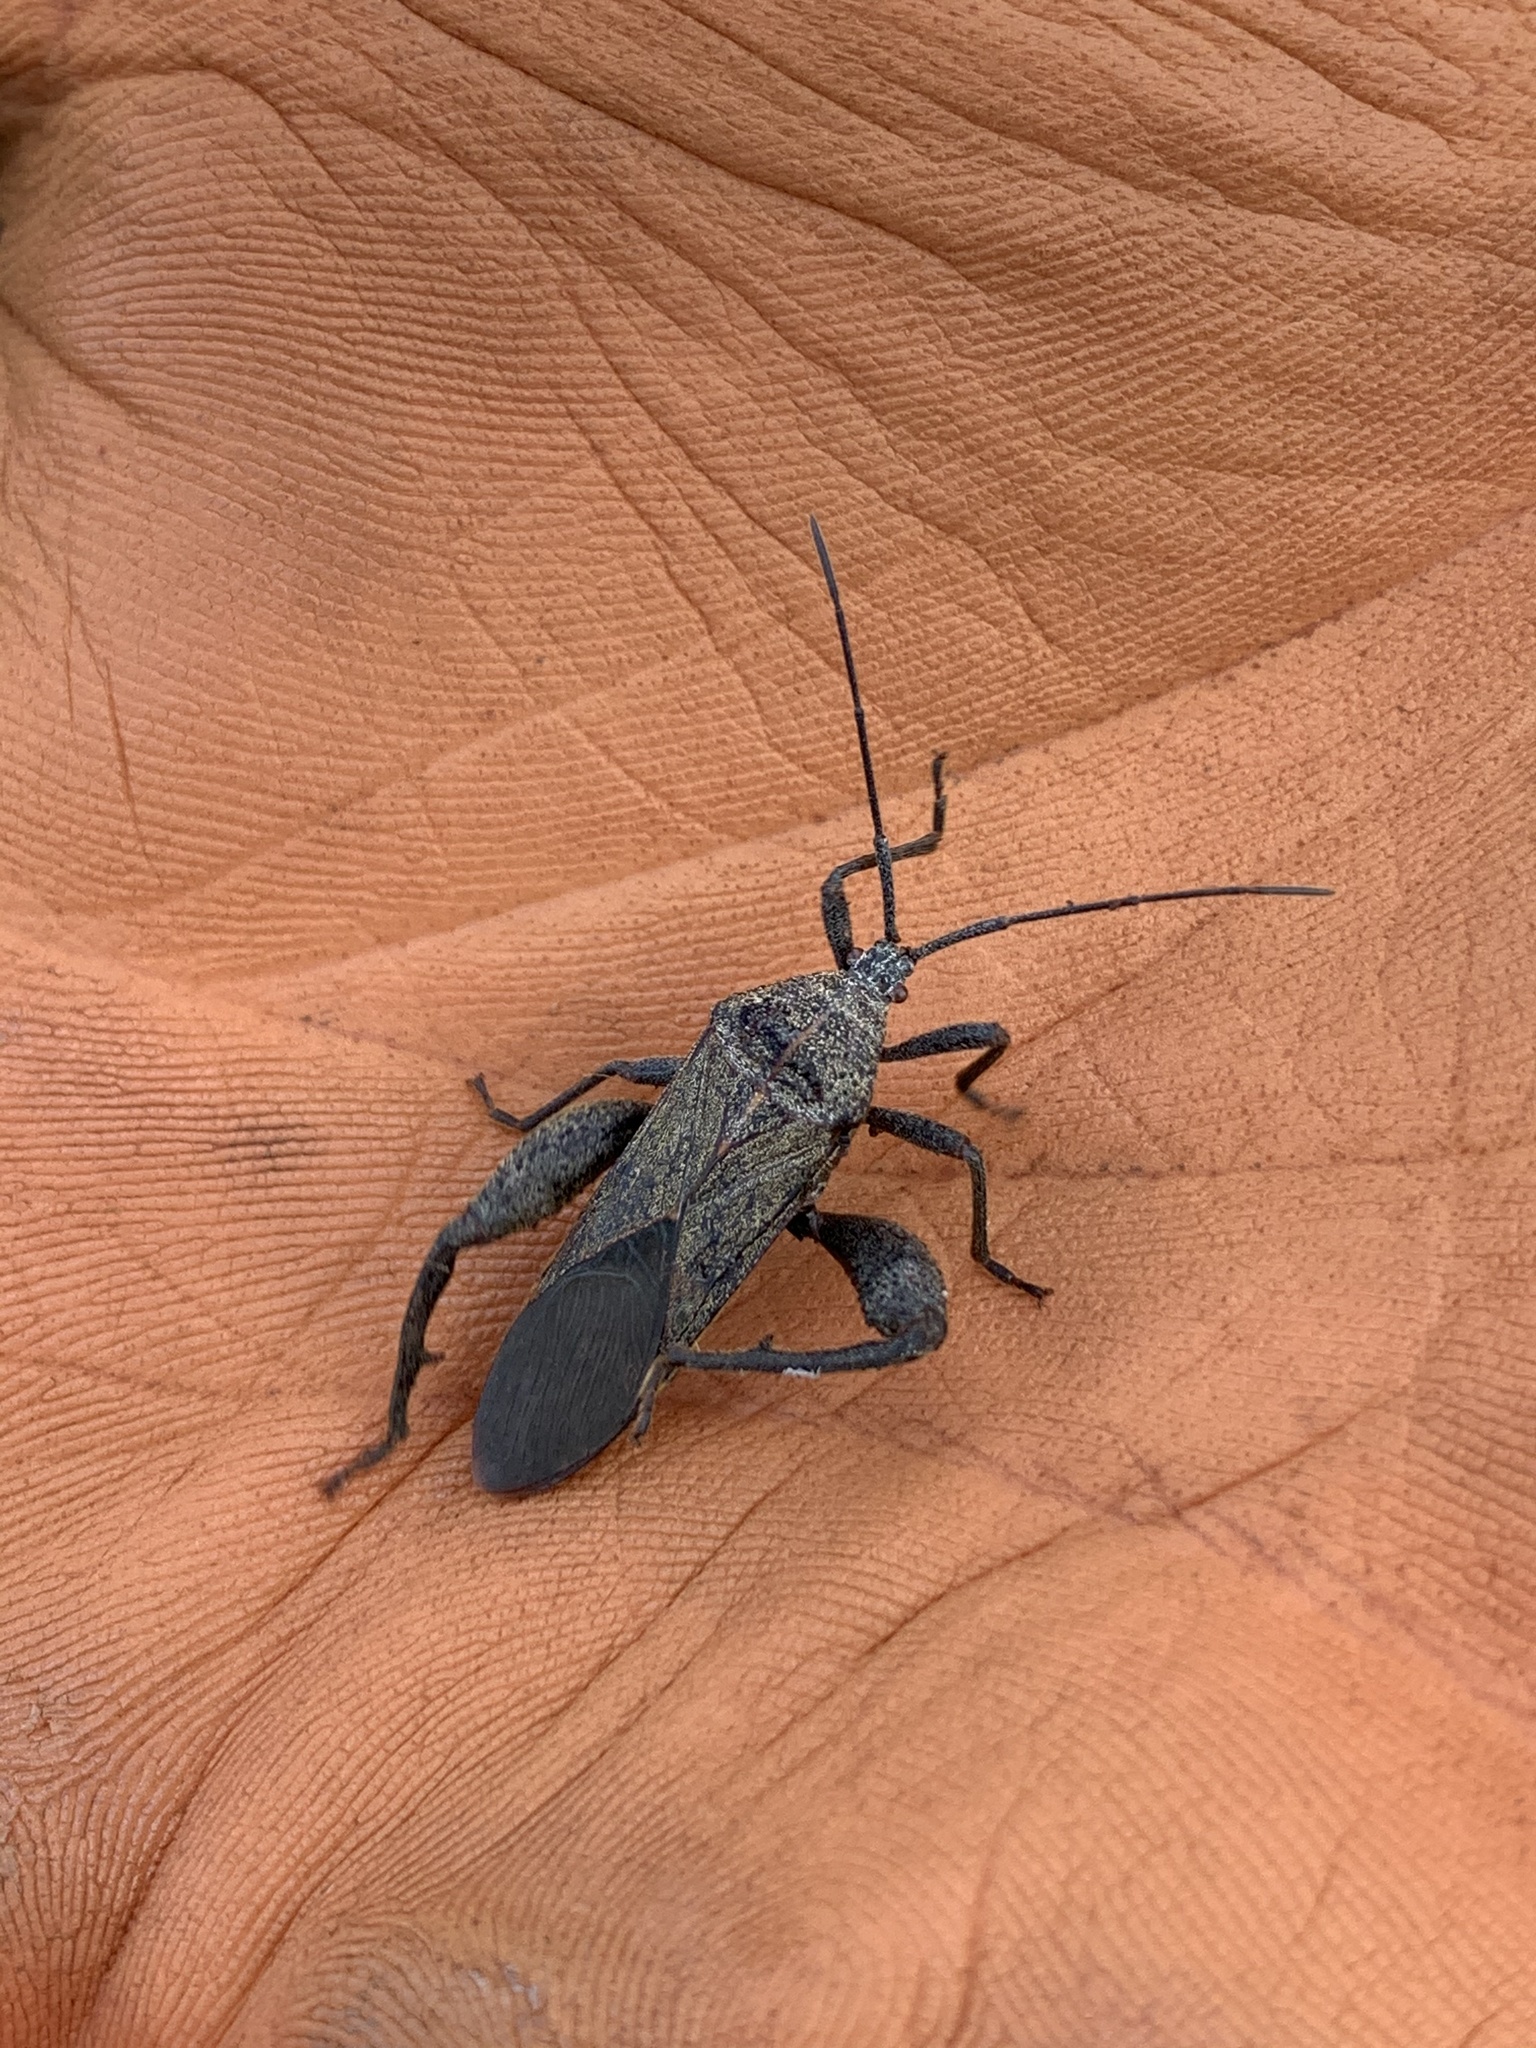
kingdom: Animalia
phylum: Arthropoda
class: Insecta
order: Hemiptera
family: Coreidae
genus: Physomerus
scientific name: Physomerus grossipes
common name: Squash bug
